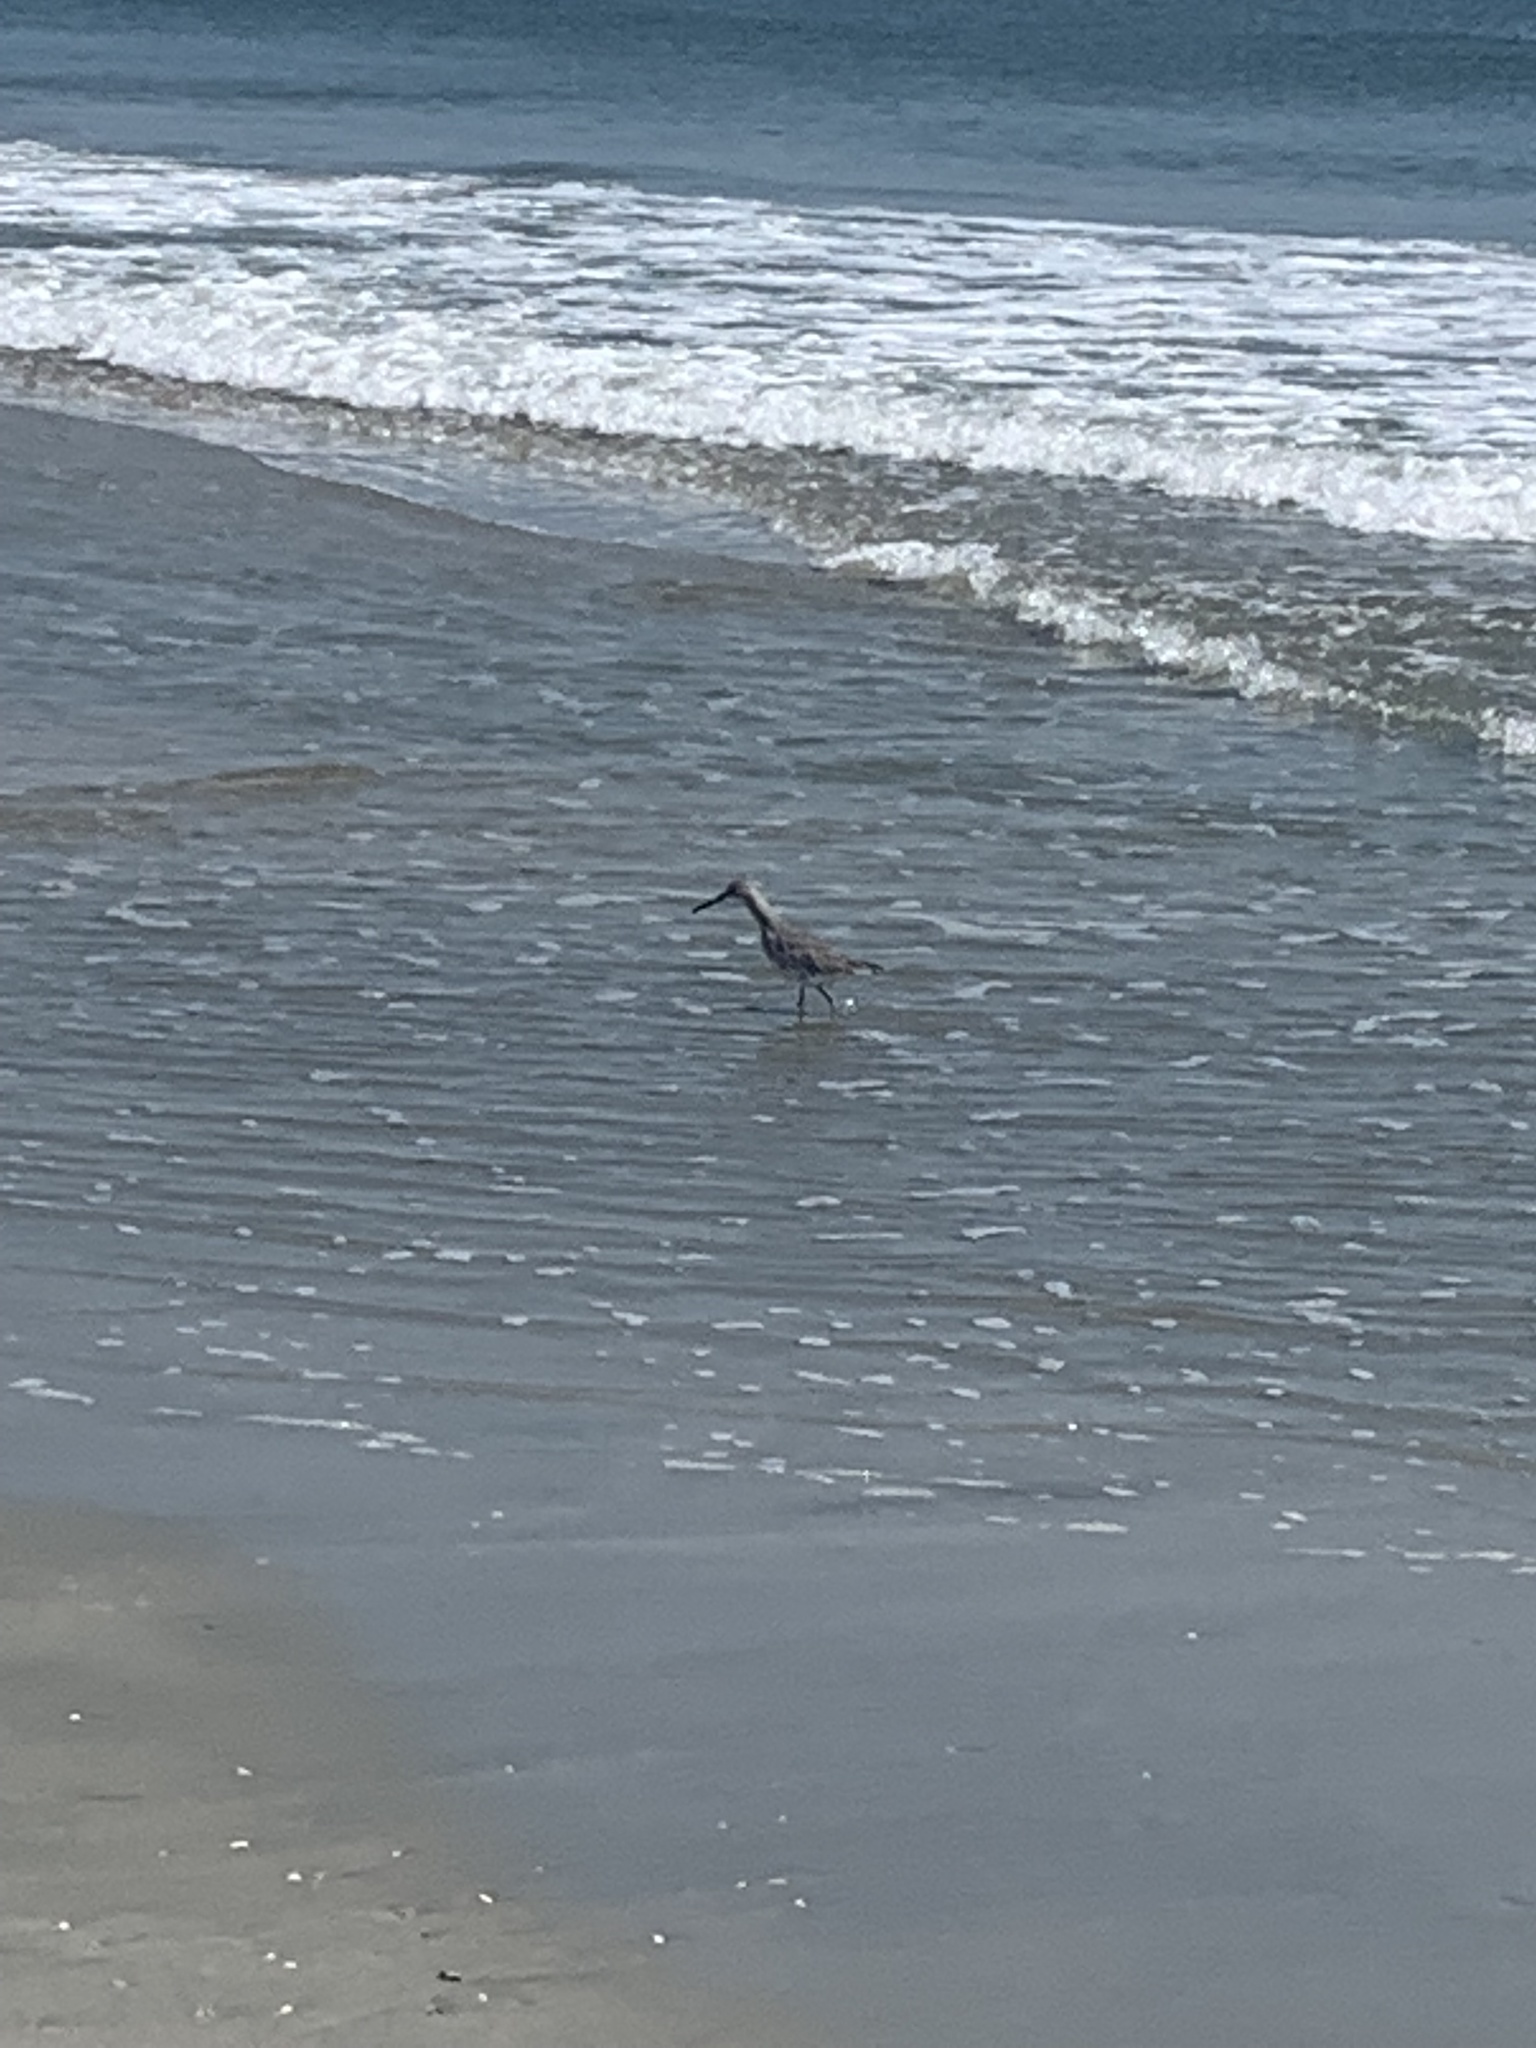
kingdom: Animalia
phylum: Chordata
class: Aves
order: Charadriiformes
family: Scolopacidae
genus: Tringa
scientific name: Tringa semipalmata
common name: Willet
